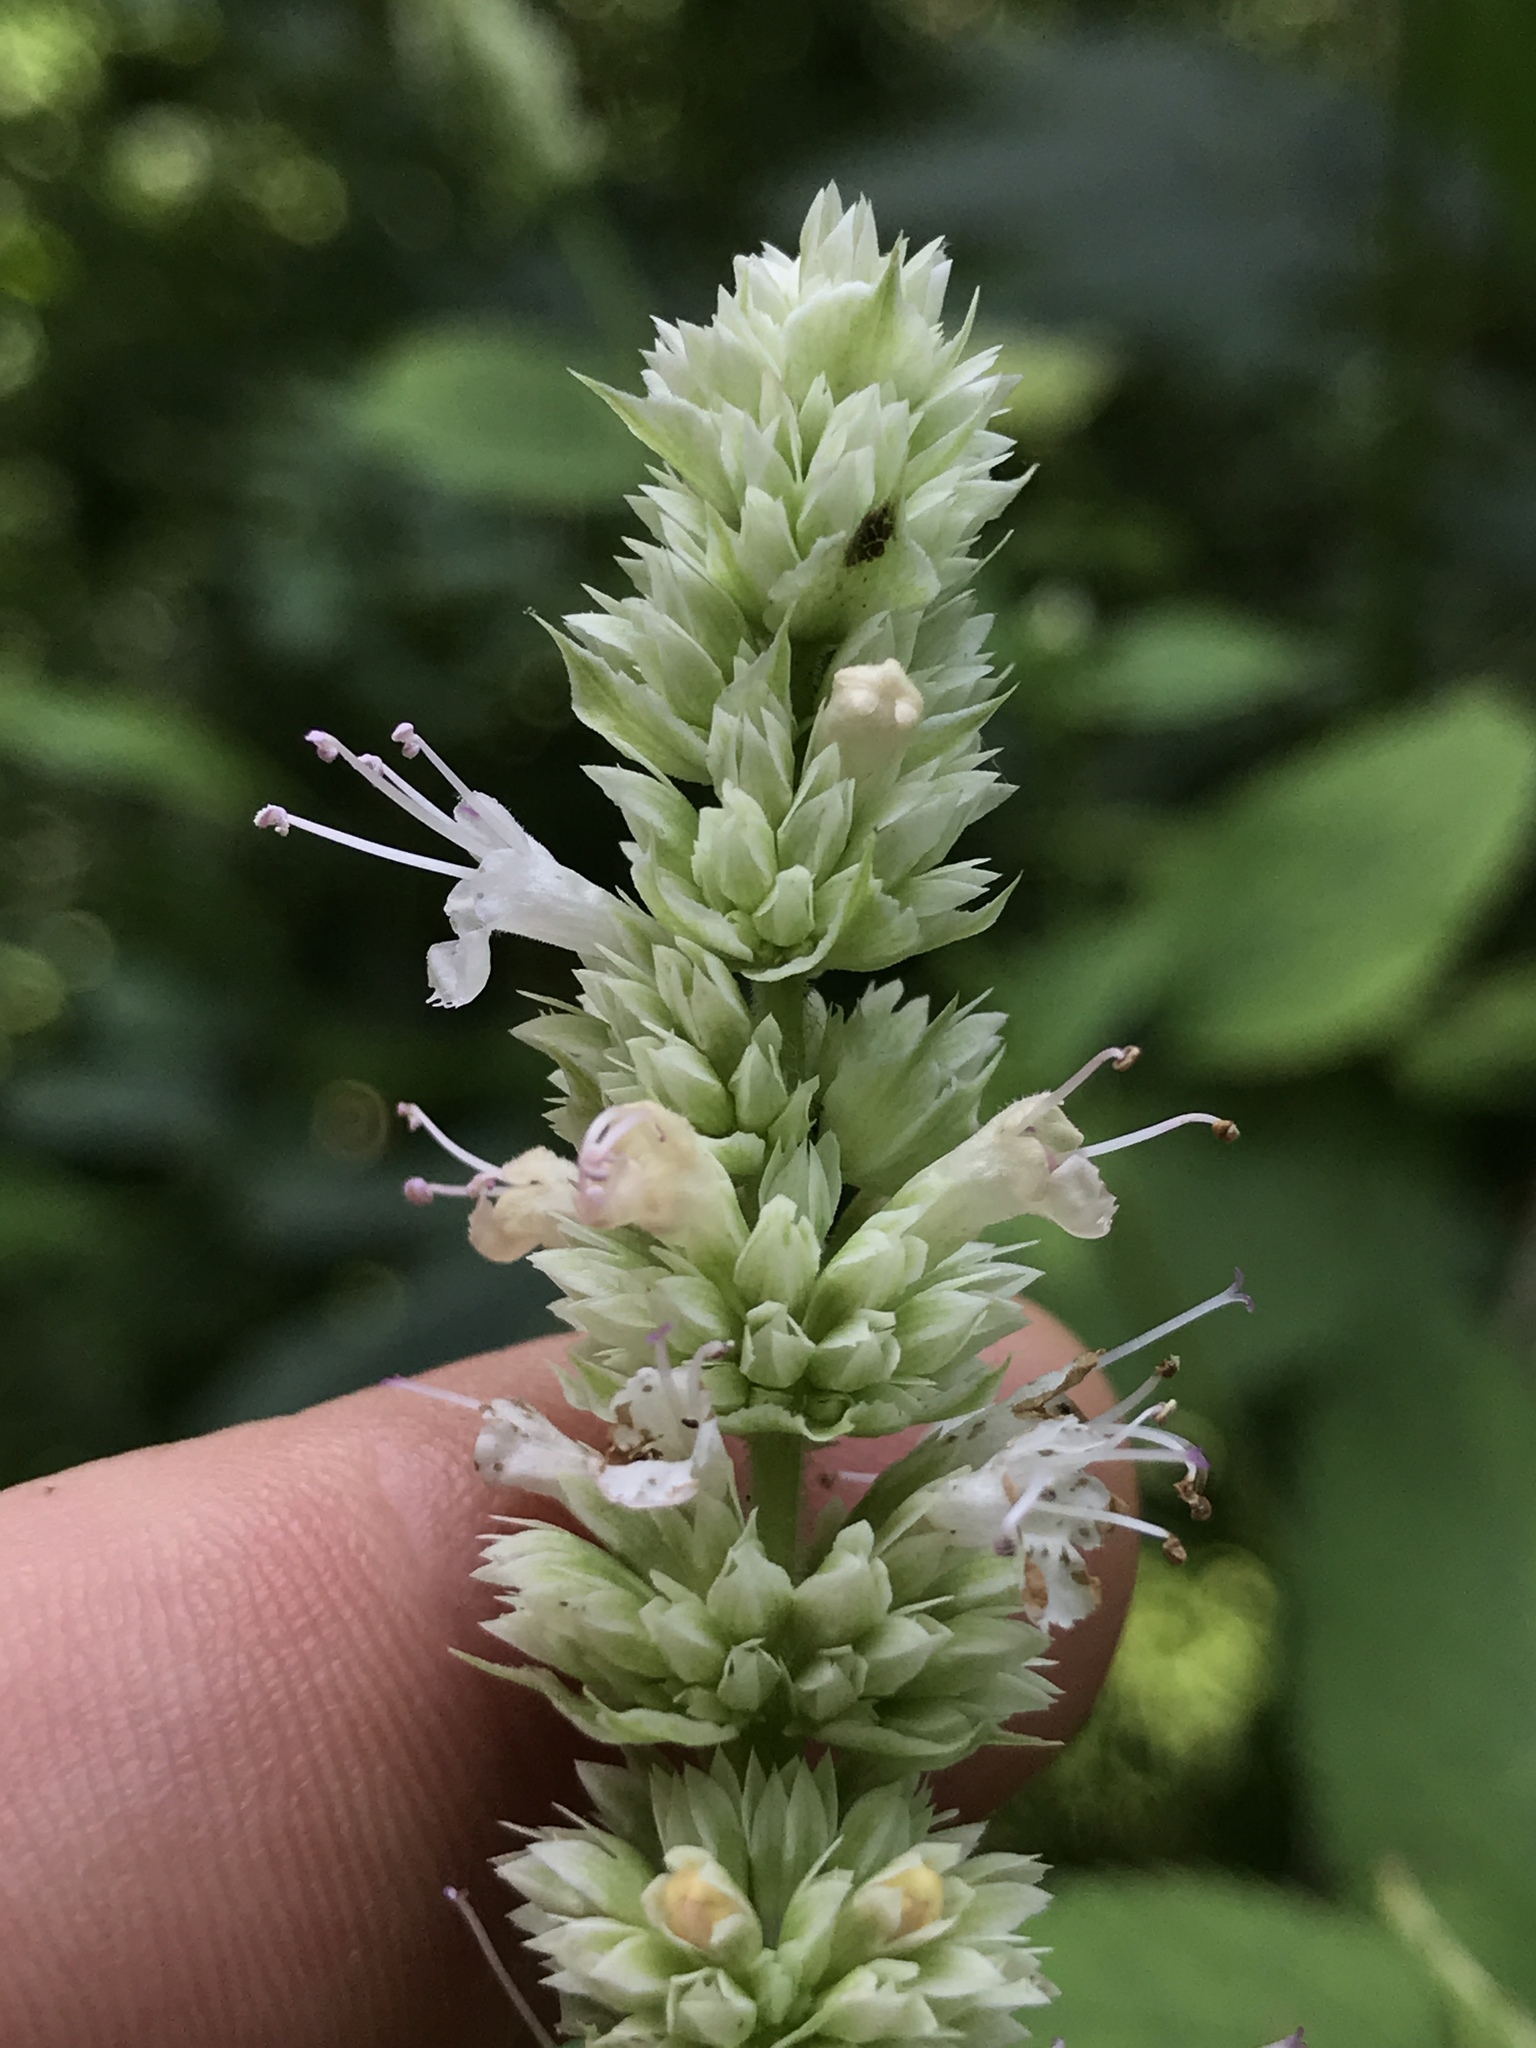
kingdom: Plantae
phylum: Tracheophyta
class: Magnoliopsida
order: Lamiales
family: Lamiaceae
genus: Agastache
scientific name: Agastache scrophulariifolia
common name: Figwort giant hyssop
